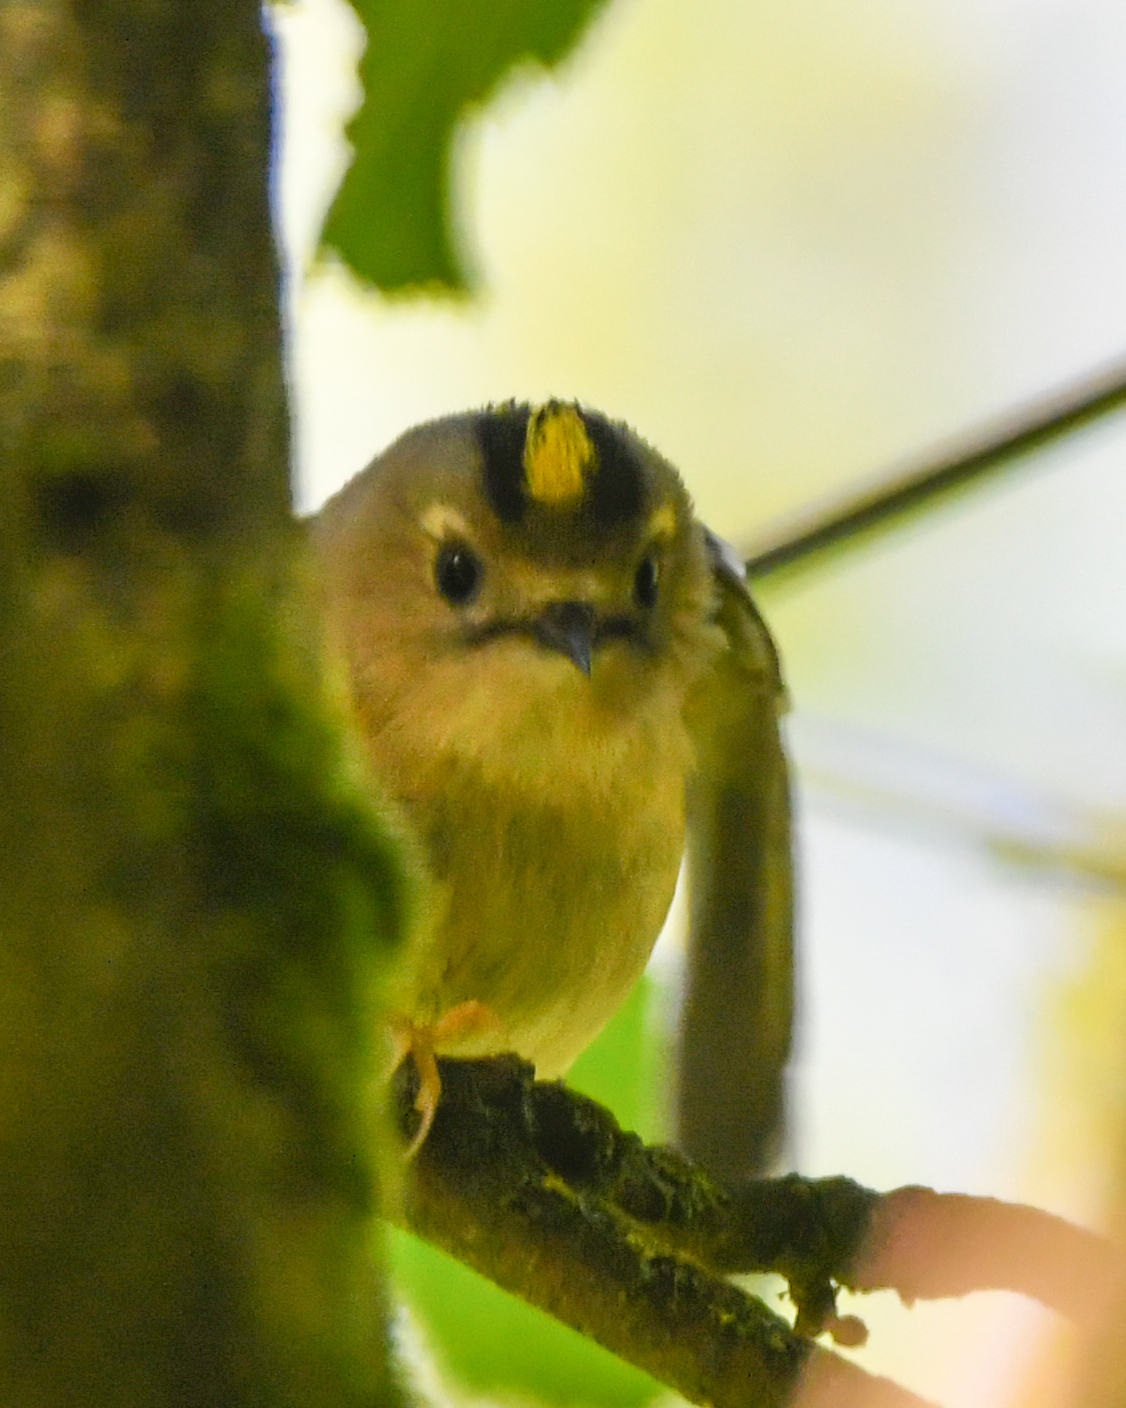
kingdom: Animalia
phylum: Chordata
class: Aves
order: Passeriformes
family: Regulidae
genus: Regulus
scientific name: Regulus regulus
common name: Goldcrest
